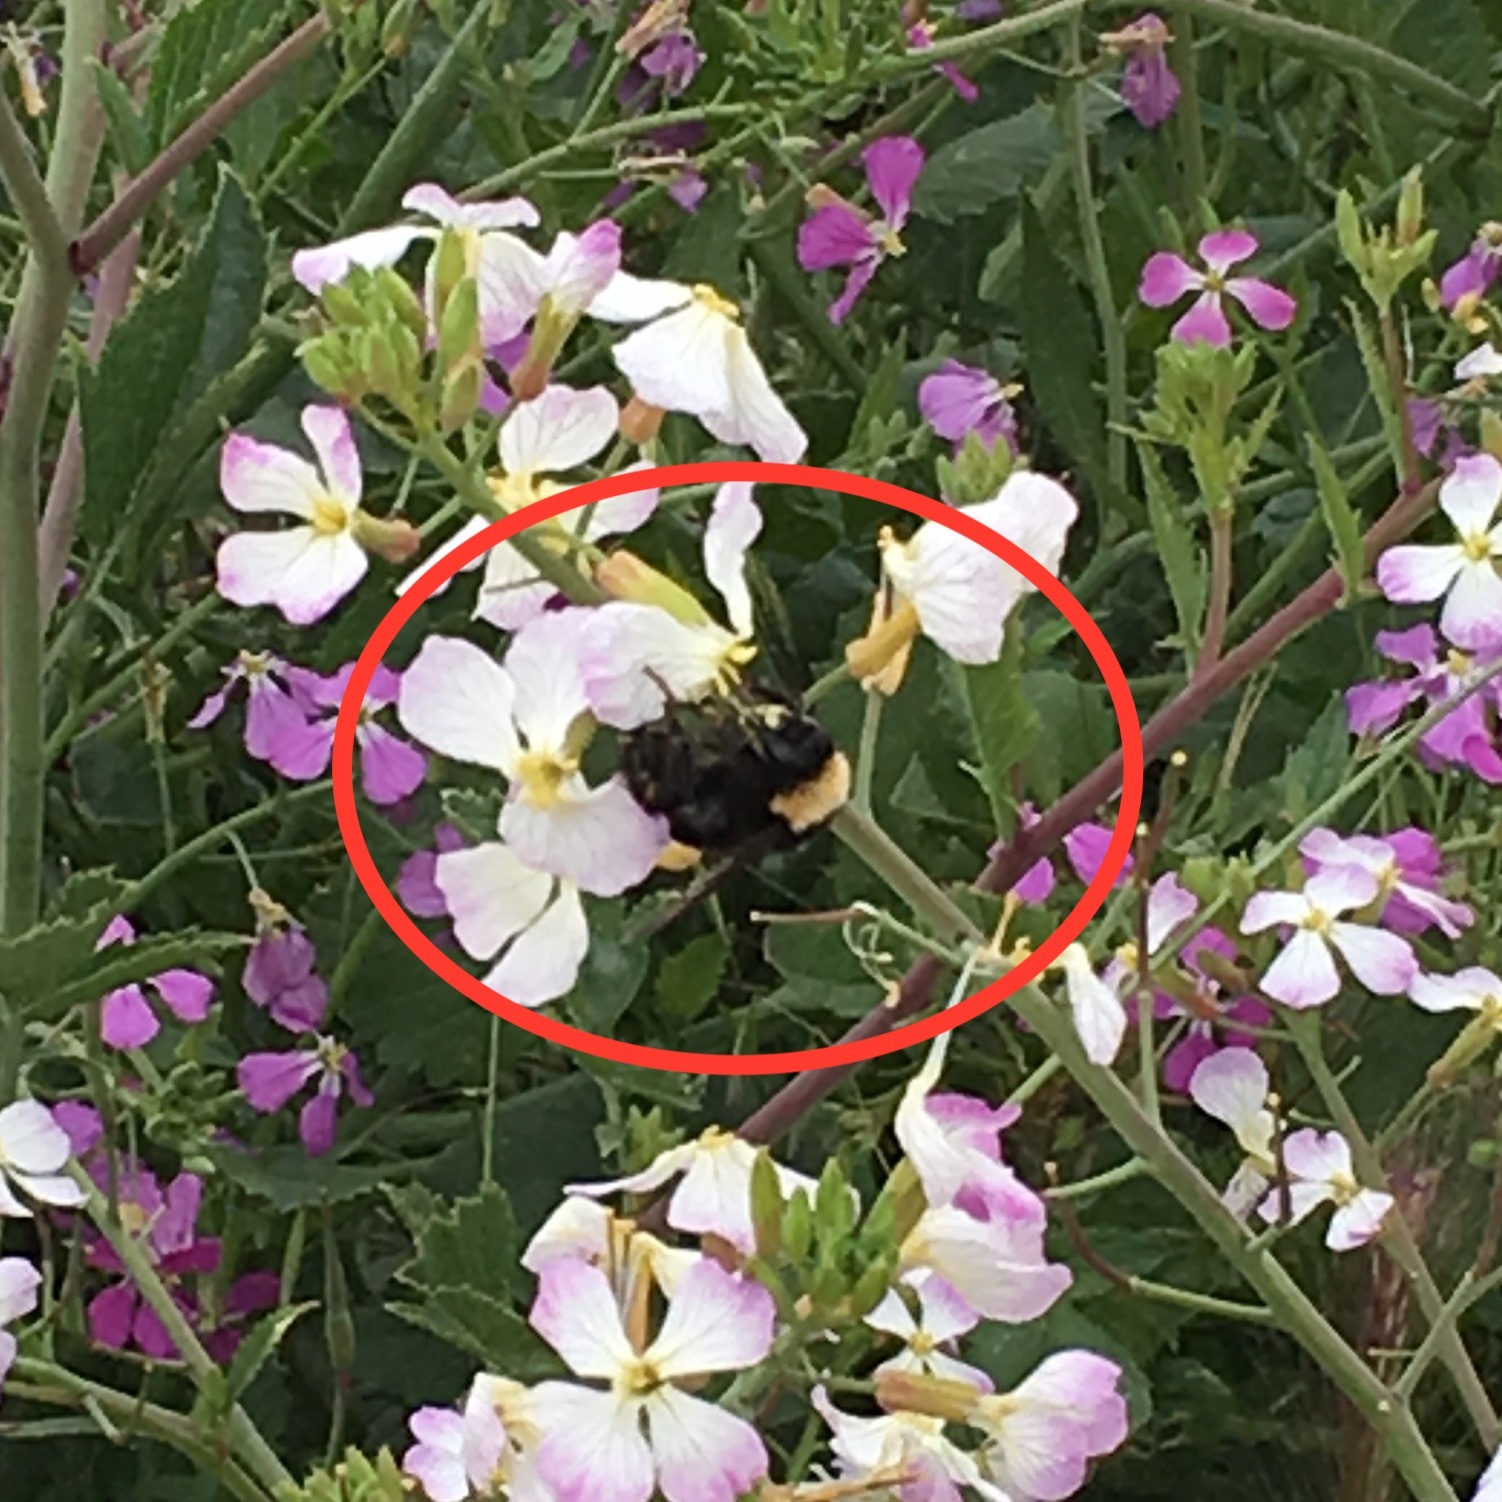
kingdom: Animalia
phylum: Arthropoda
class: Insecta
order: Hymenoptera
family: Apidae
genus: Bombus
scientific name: Bombus californicus
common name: California bumble bee
